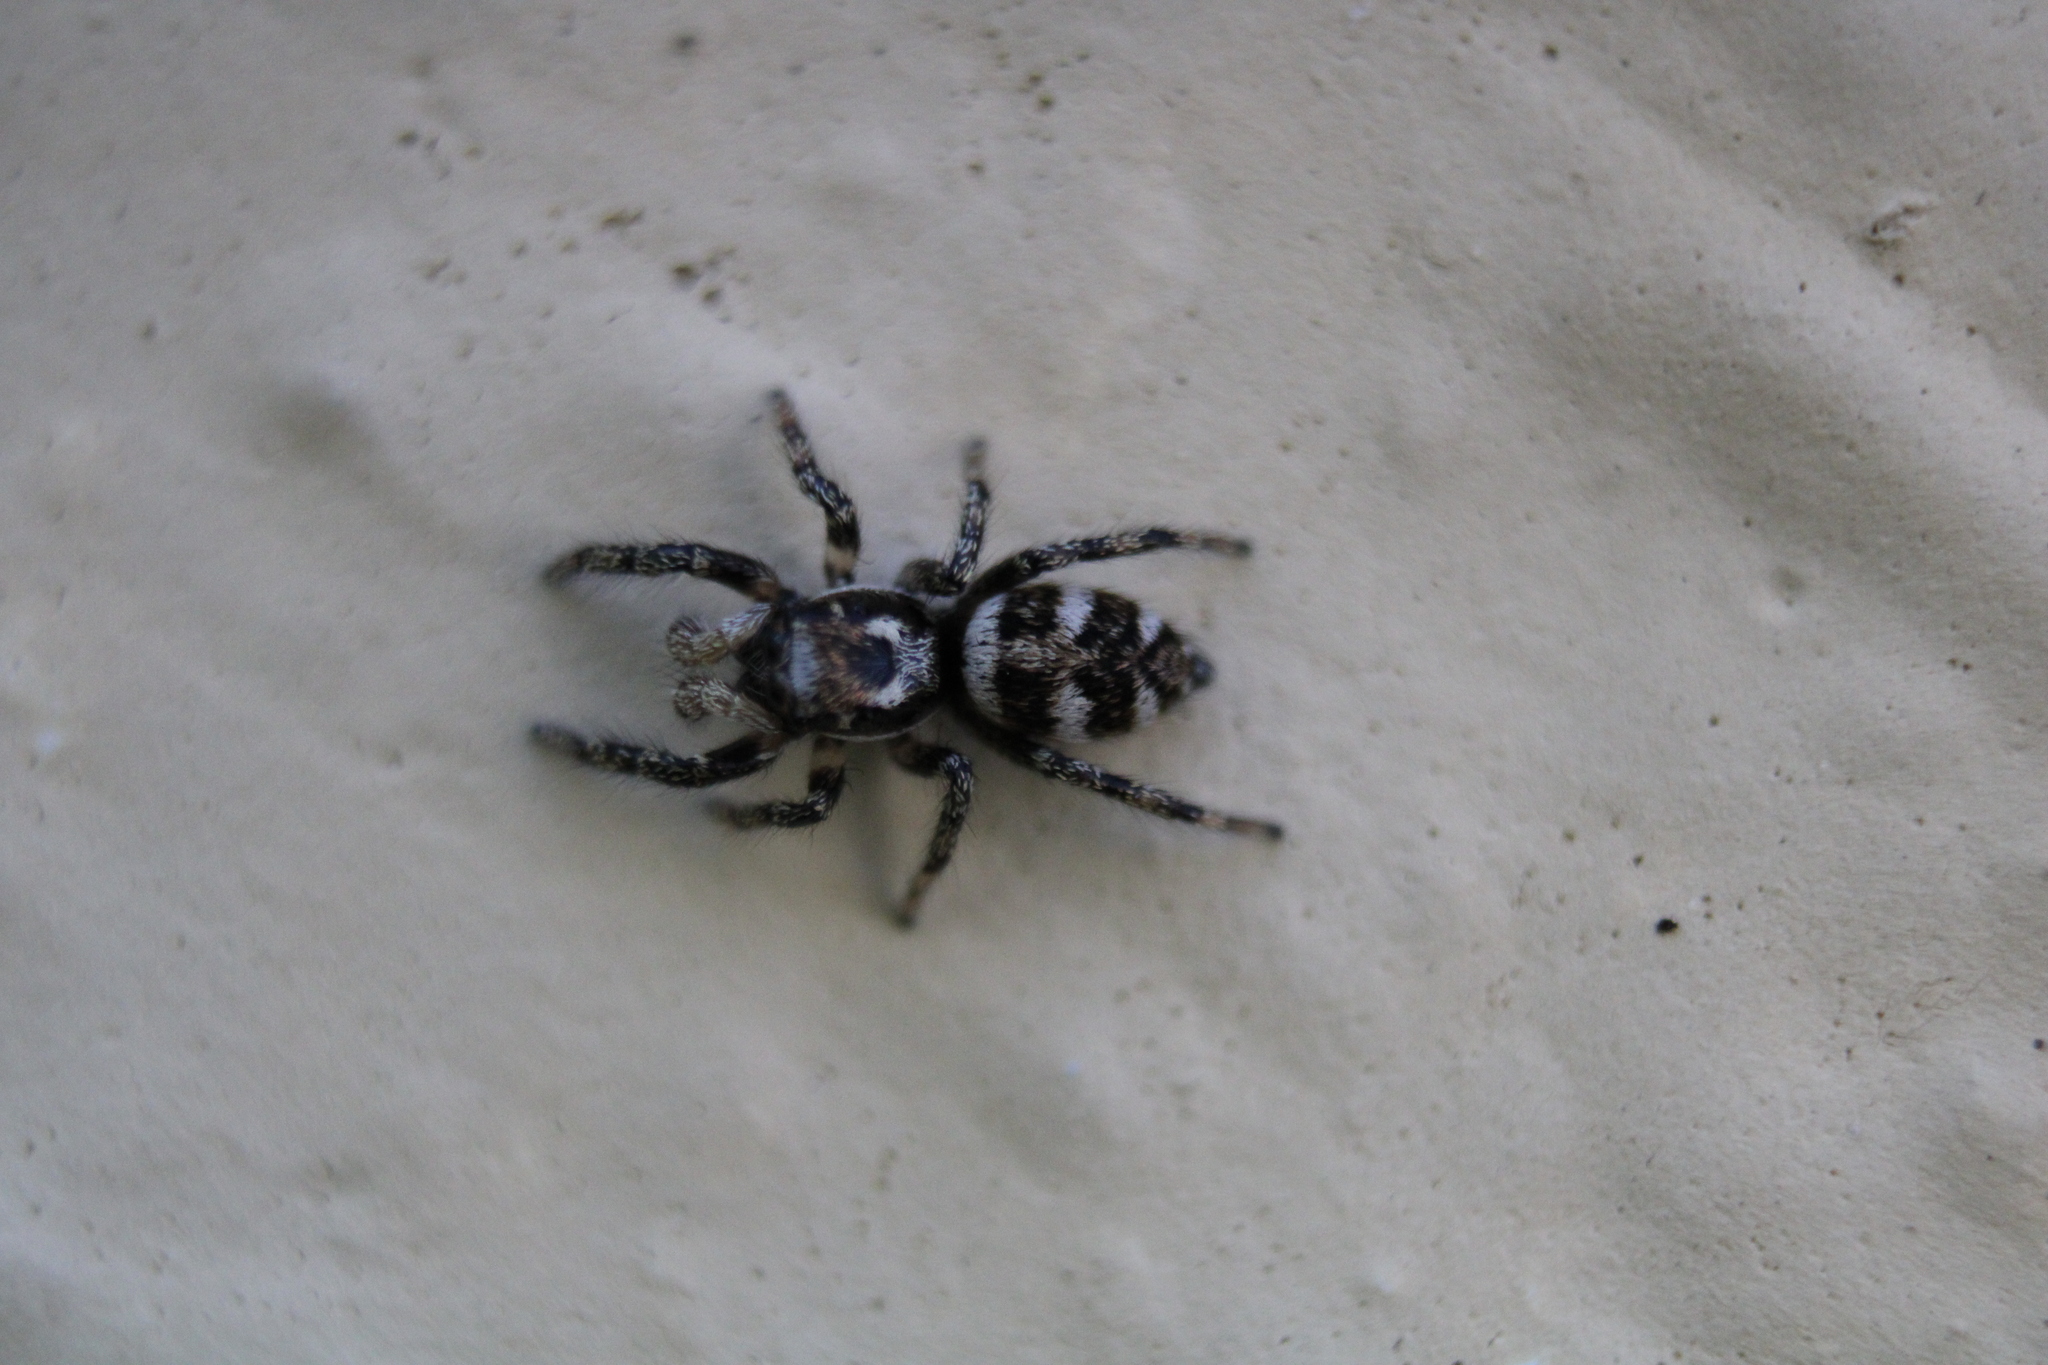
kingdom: Animalia
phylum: Arthropoda
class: Arachnida
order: Araneae
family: Salticidae
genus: Salticus
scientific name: Salticus scenicus
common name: Zebra jumper
